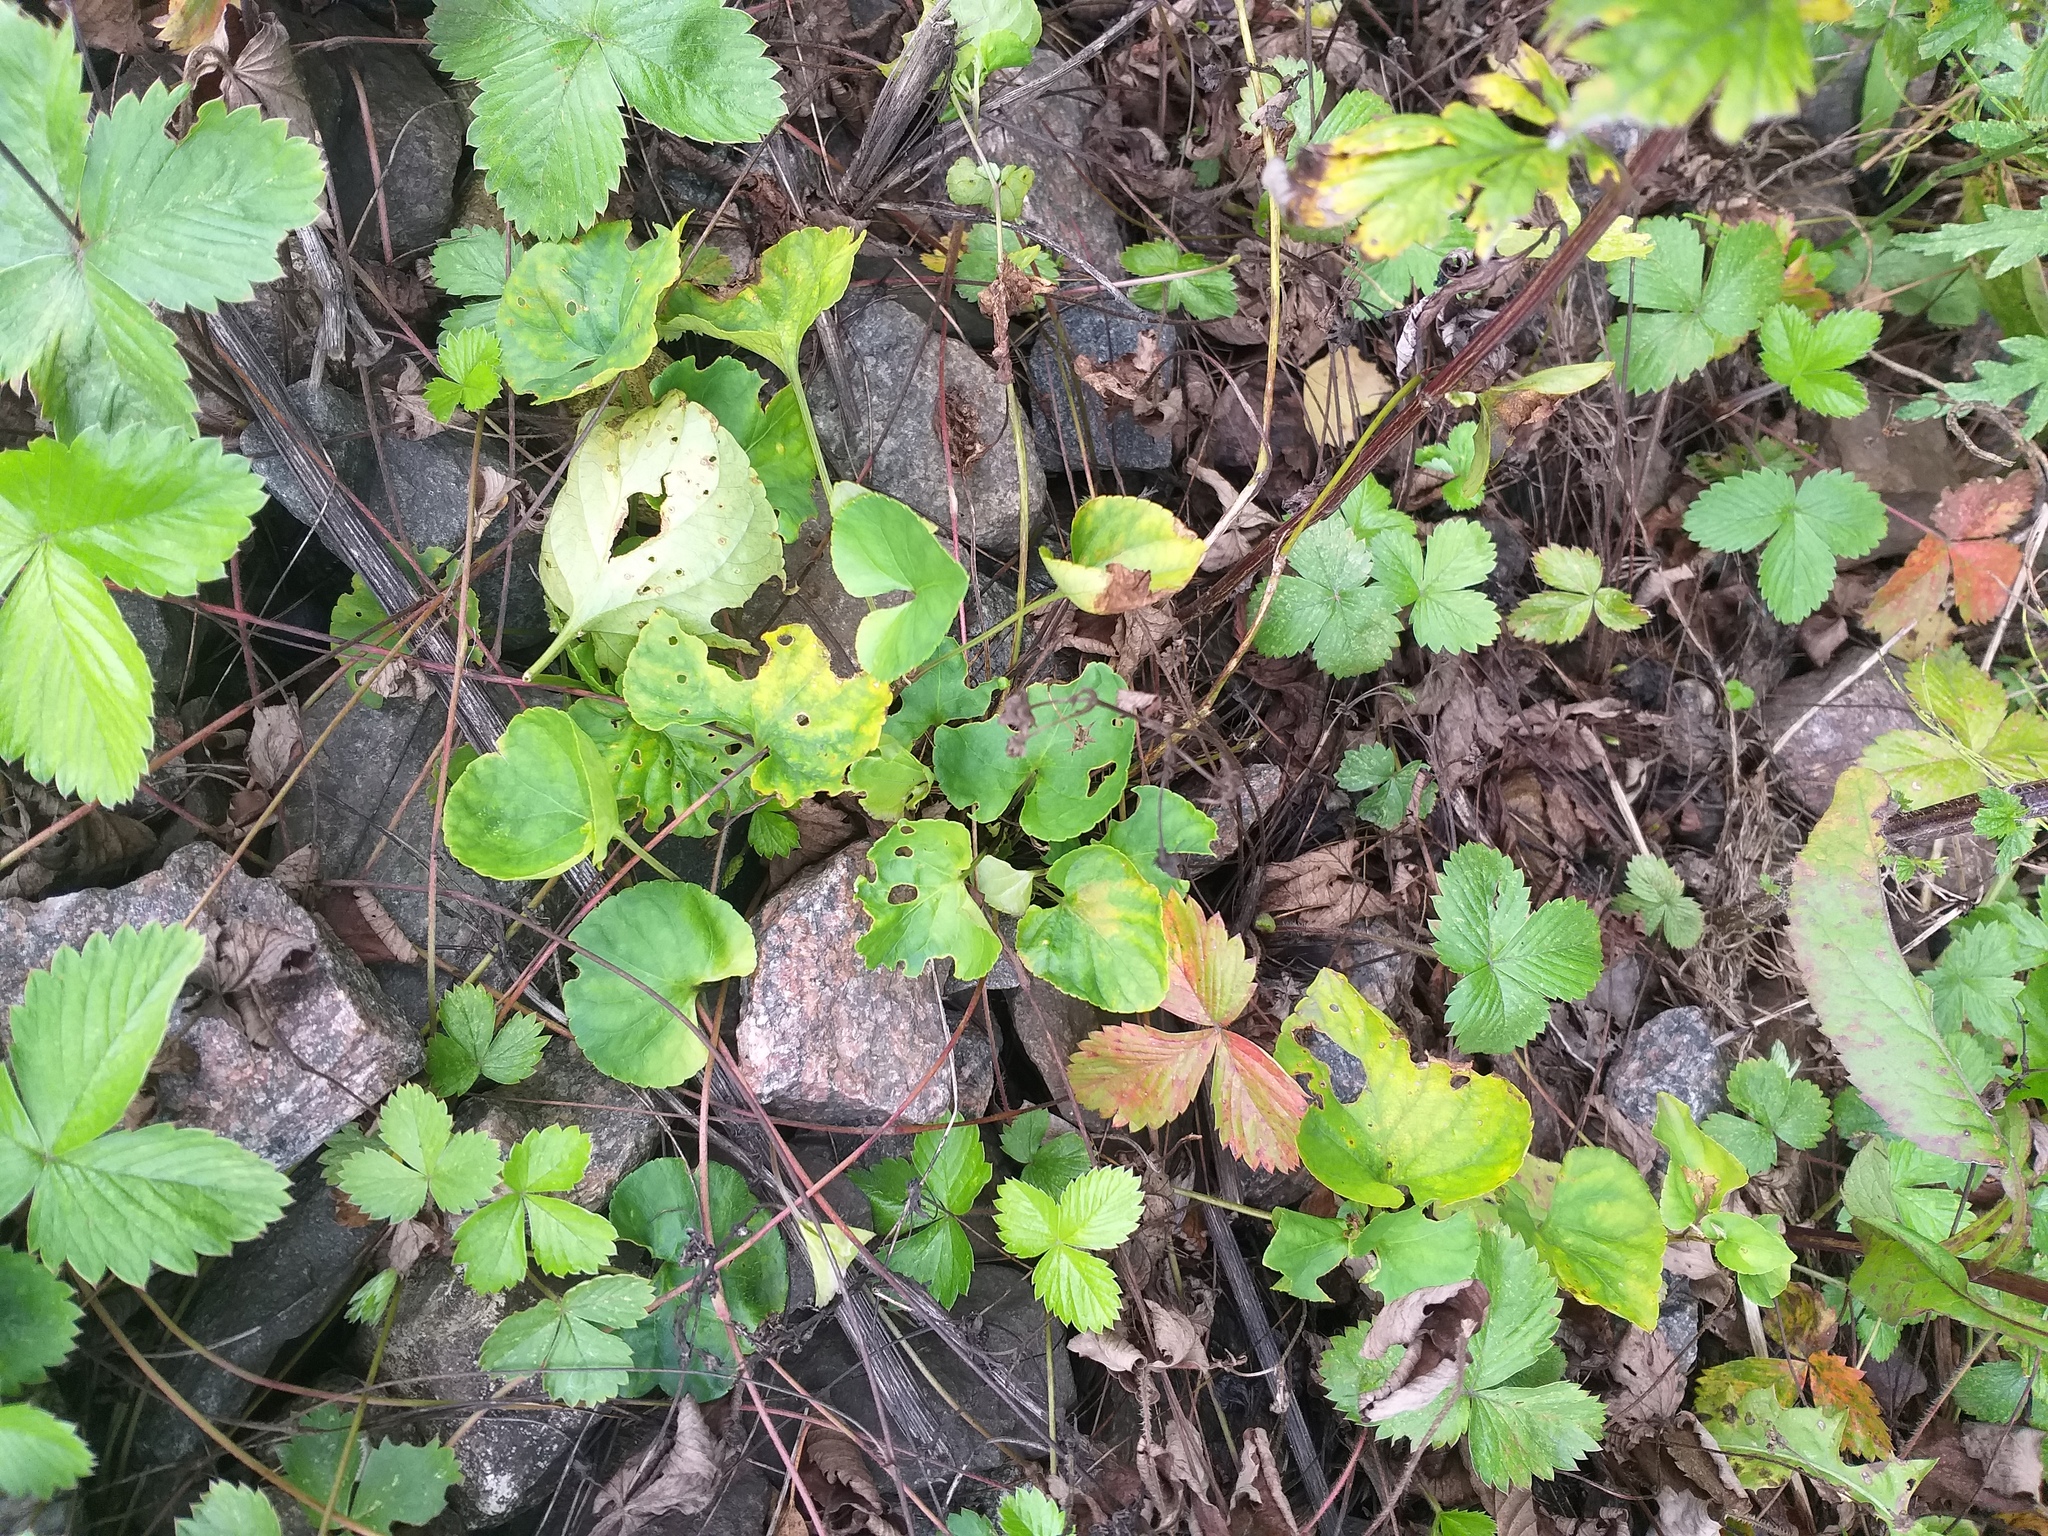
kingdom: Plantae
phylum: Tracheophyta
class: Magnoliopsida
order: Malpighiales
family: Violaceae
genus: Viola
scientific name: Viola mirabilis
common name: Wonder violet
